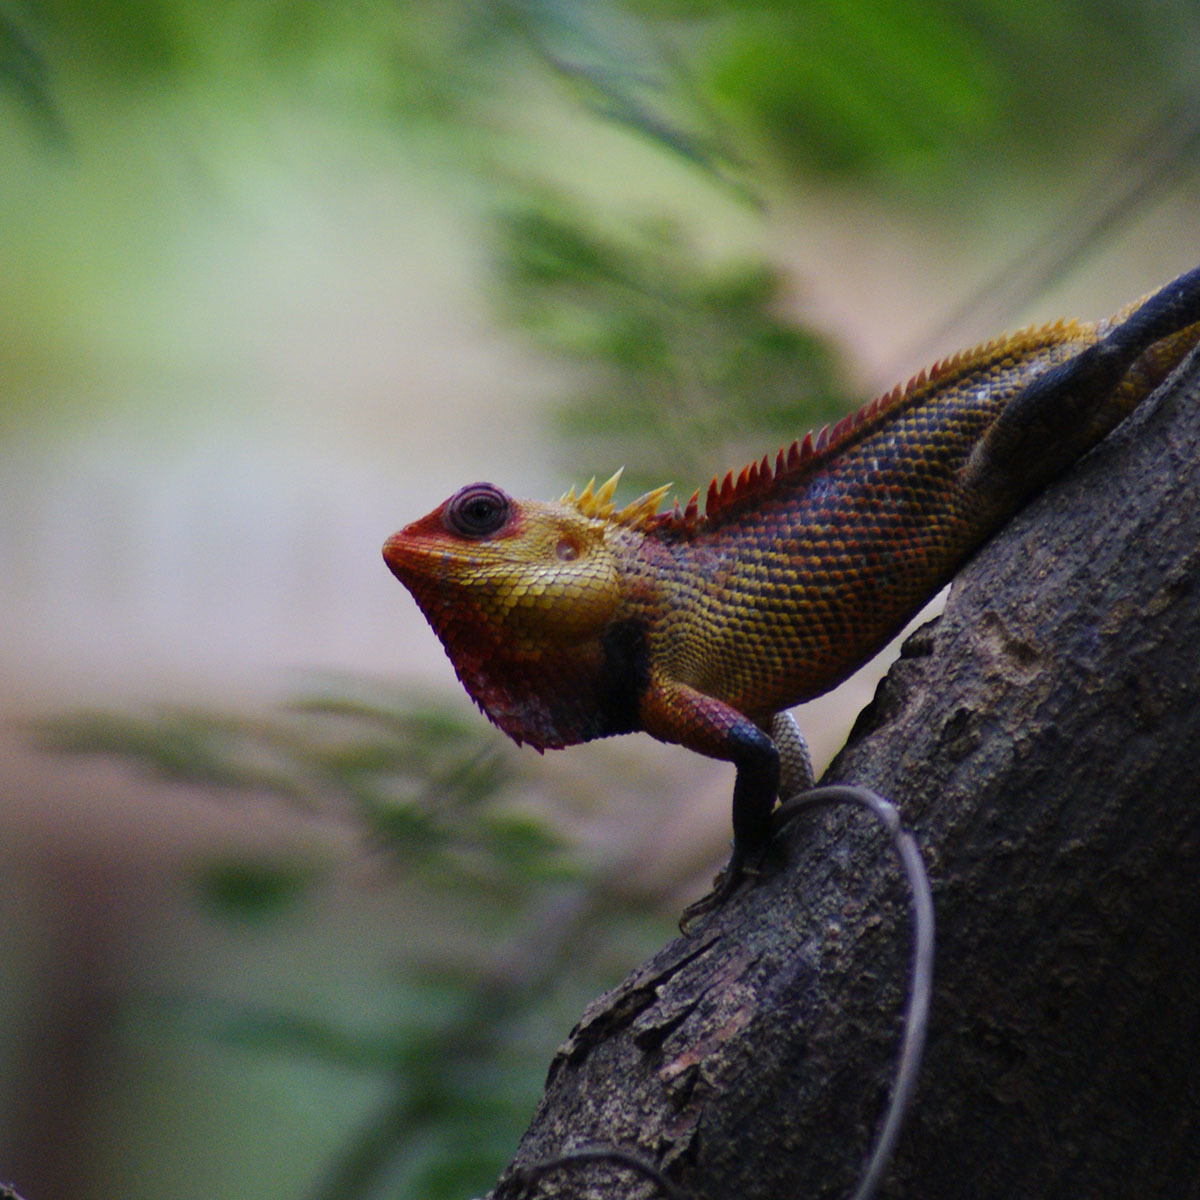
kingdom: Animalia
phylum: Chordata
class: Squamata
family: Agamidae
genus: Calotes
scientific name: Calotes versicolor
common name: Oriental garden lizard
